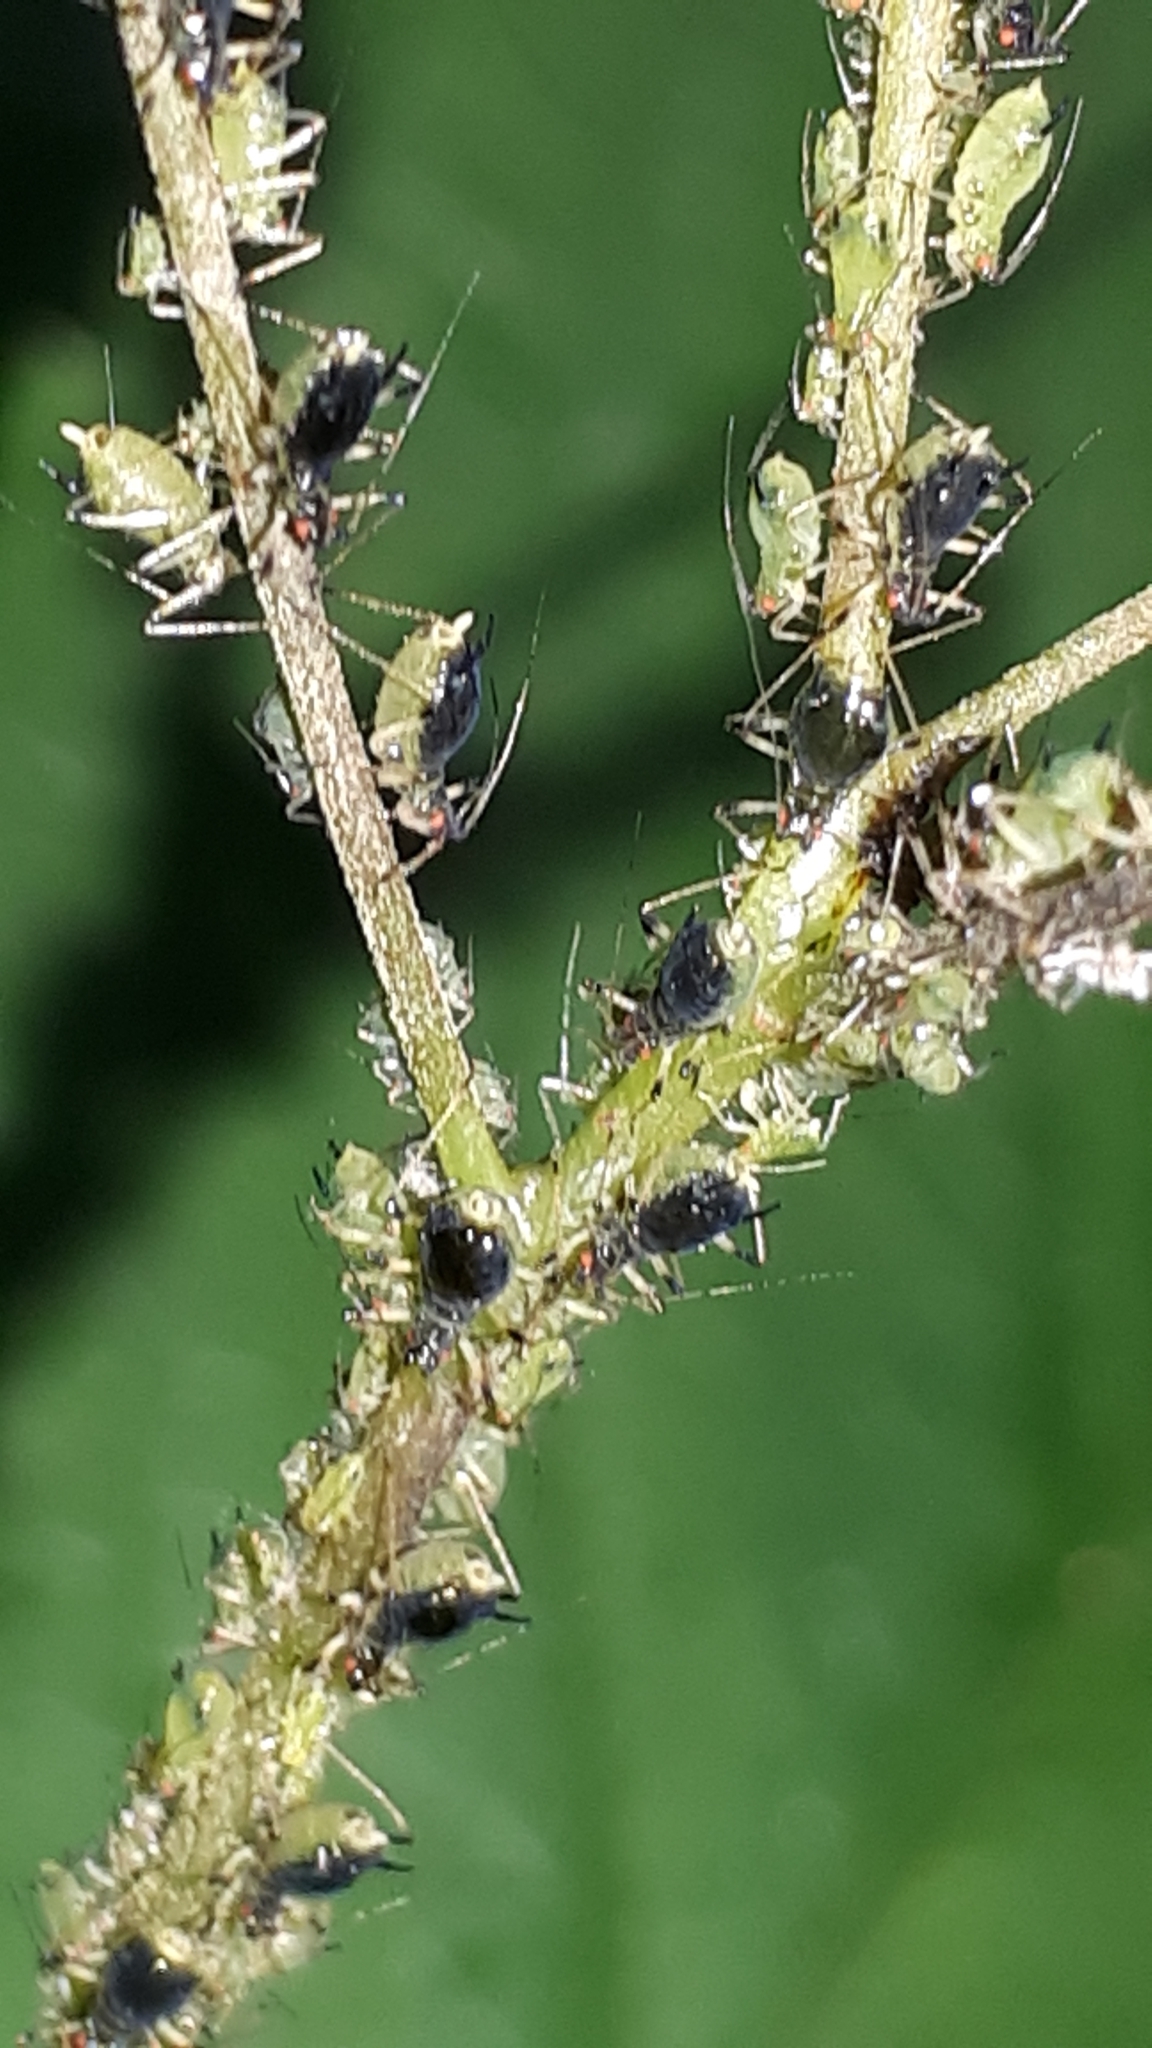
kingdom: Animalia
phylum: Arthropoda
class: Insecta
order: Hemiptera
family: Aphididae
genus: Impatientinum
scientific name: Impatientinum asiaticum
